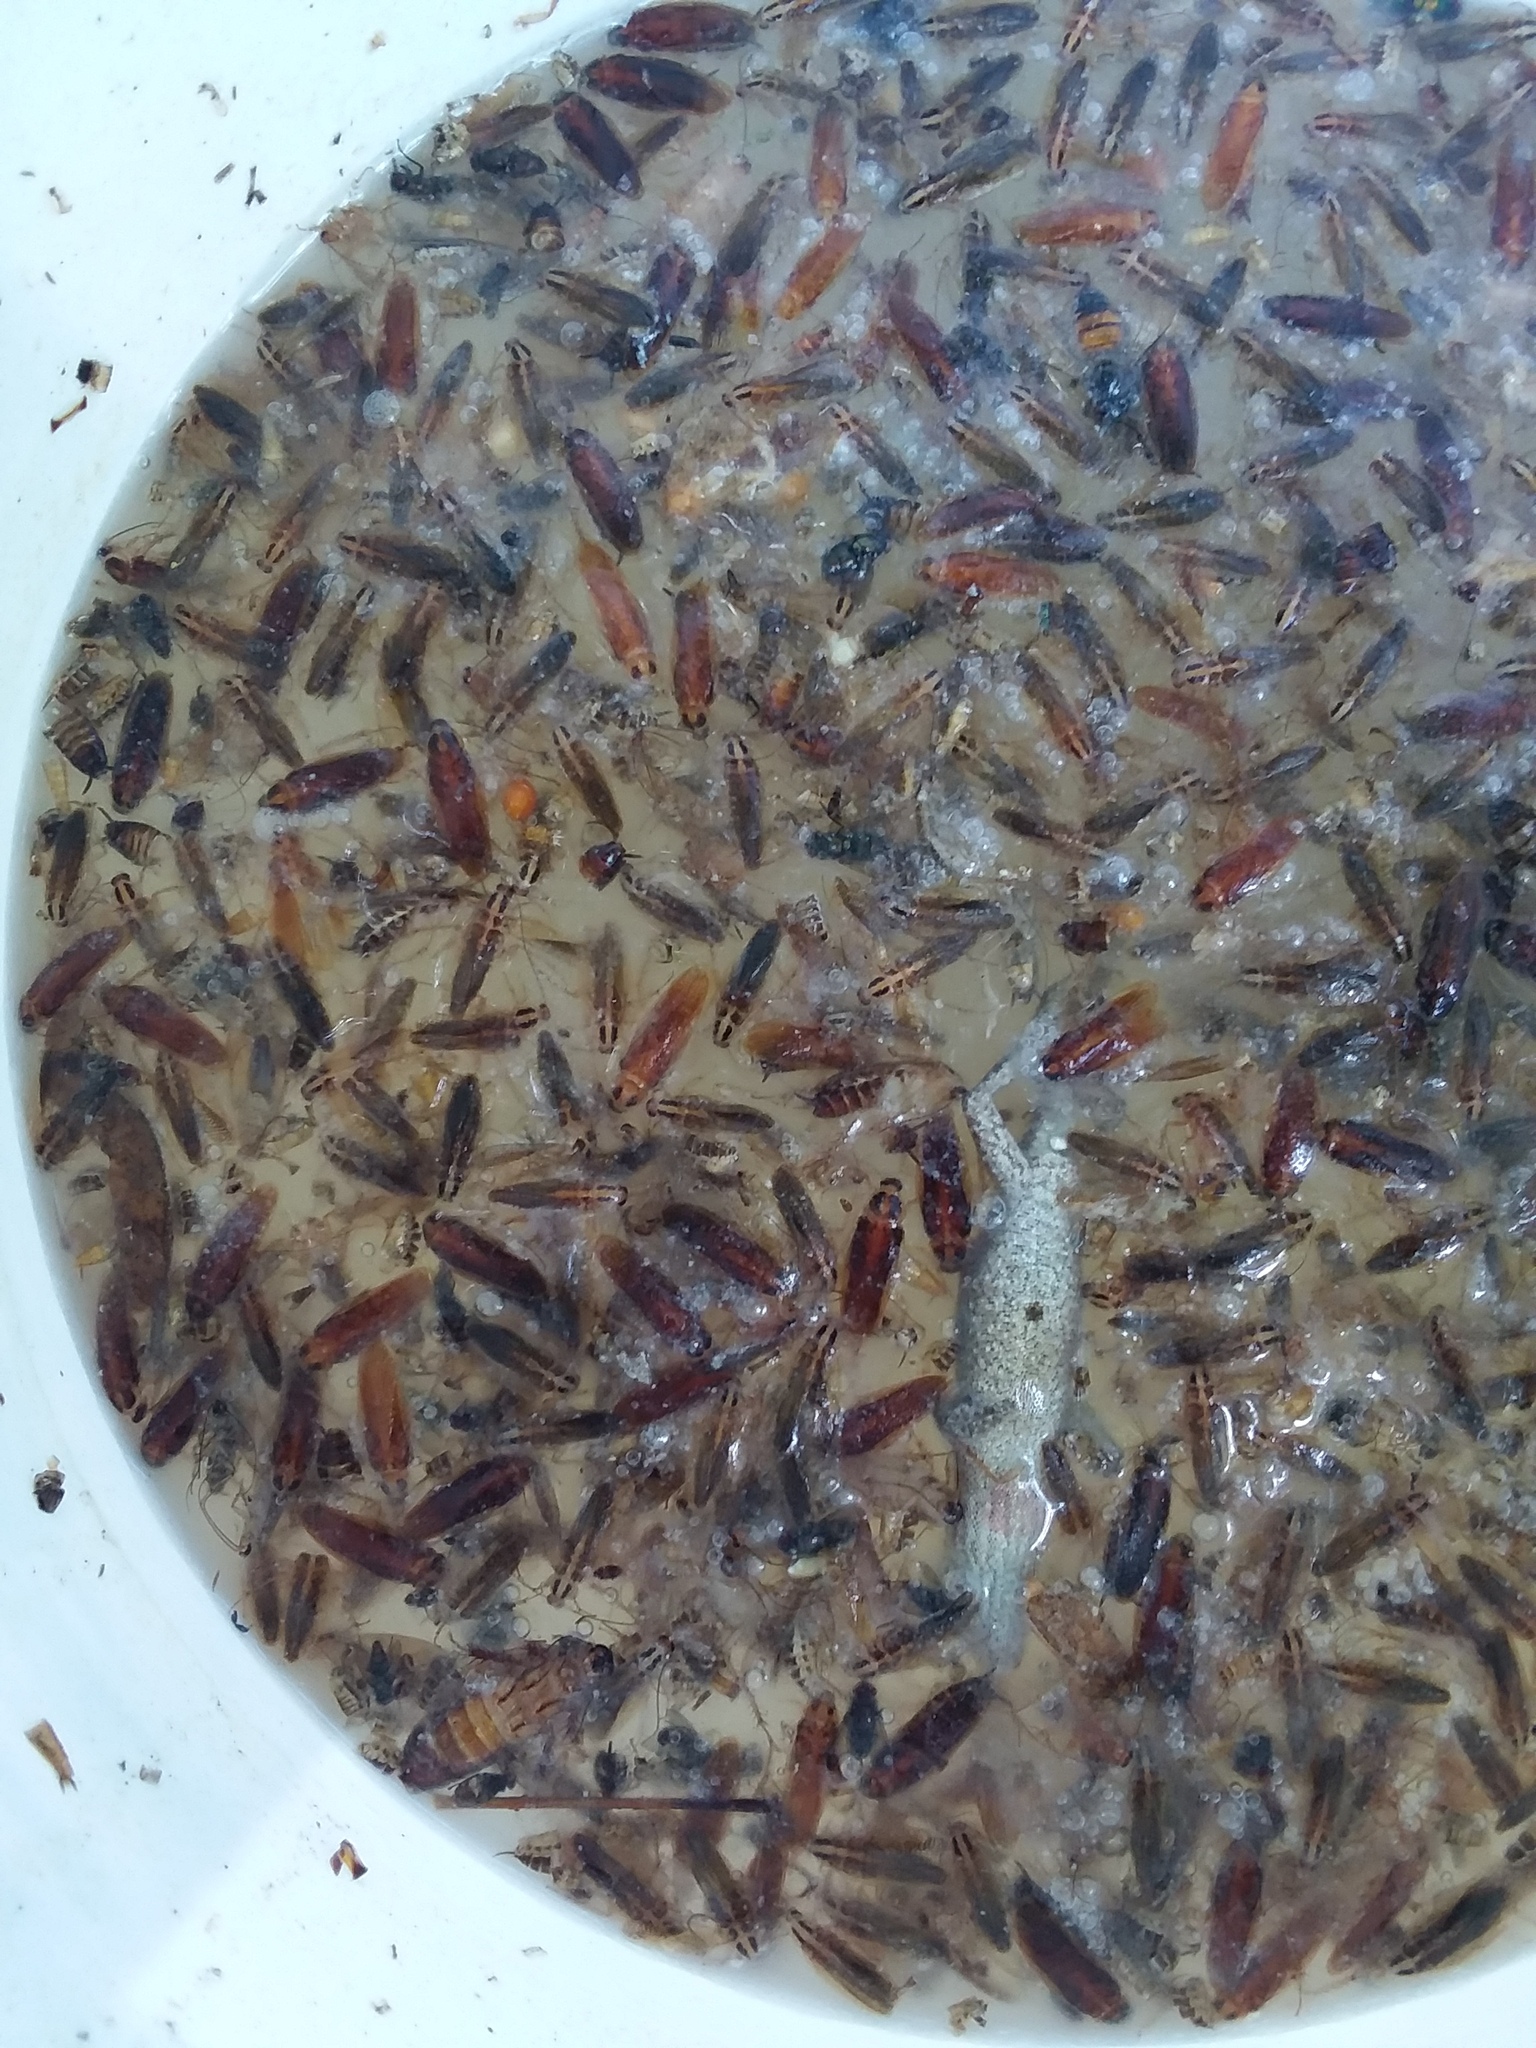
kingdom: Animalia
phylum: Arthropoda
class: Insecta
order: Blattodea
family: Ectobiidae
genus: Ischnoptera
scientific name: Ischnoptera bilunata
